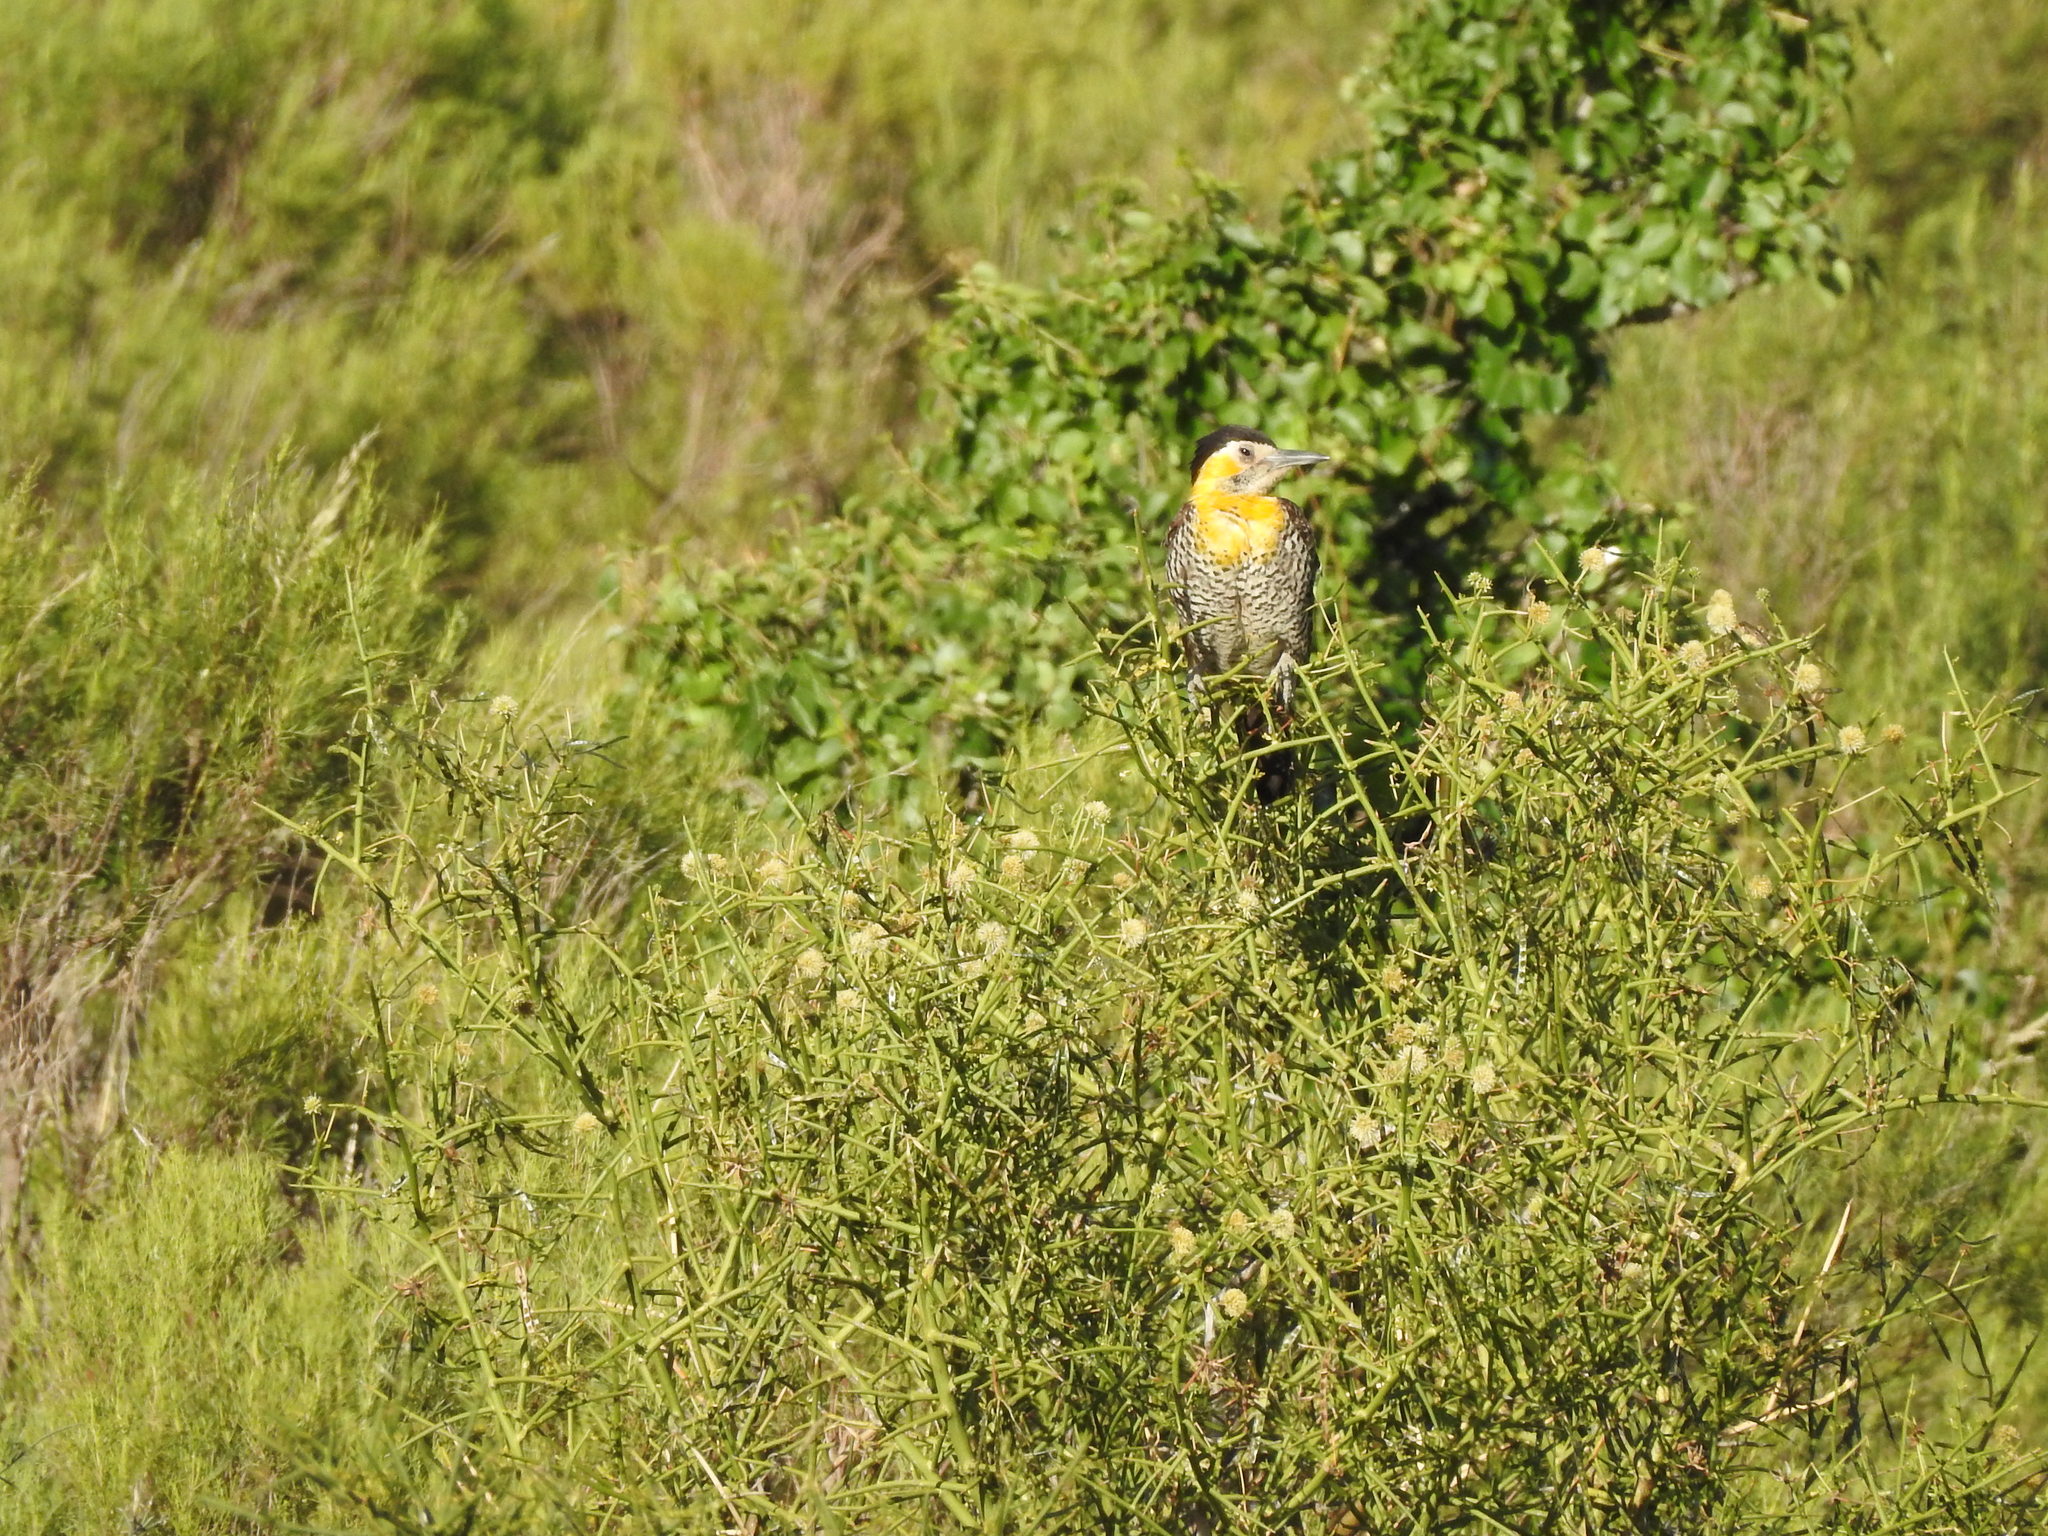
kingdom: Animalia
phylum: Chordata
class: Aves
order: Piciformes
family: Picidae
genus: Colaptes
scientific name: Colaptes campestris
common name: Campo flicker
